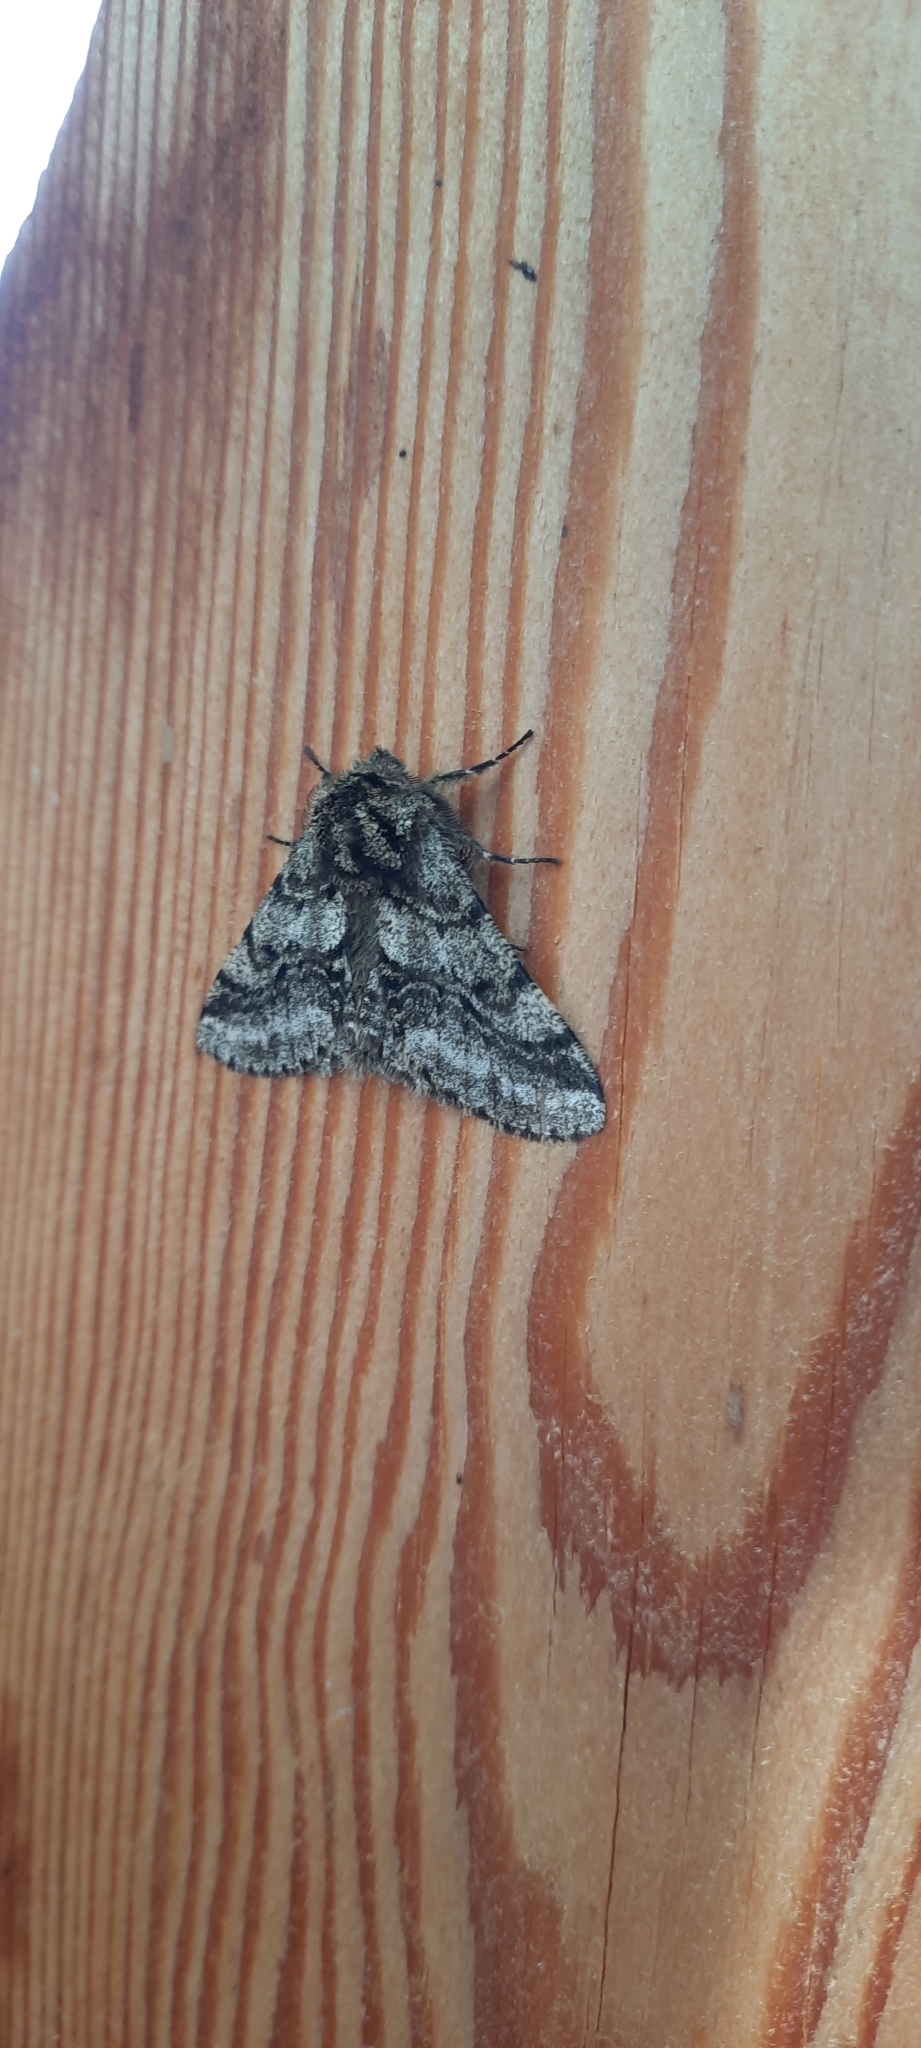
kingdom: Animalia
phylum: Arthropoda
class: Insecta
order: Lepidoptera
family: Geometridae
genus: Lycia
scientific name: Lycia hirtaria
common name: Brindled beauty
